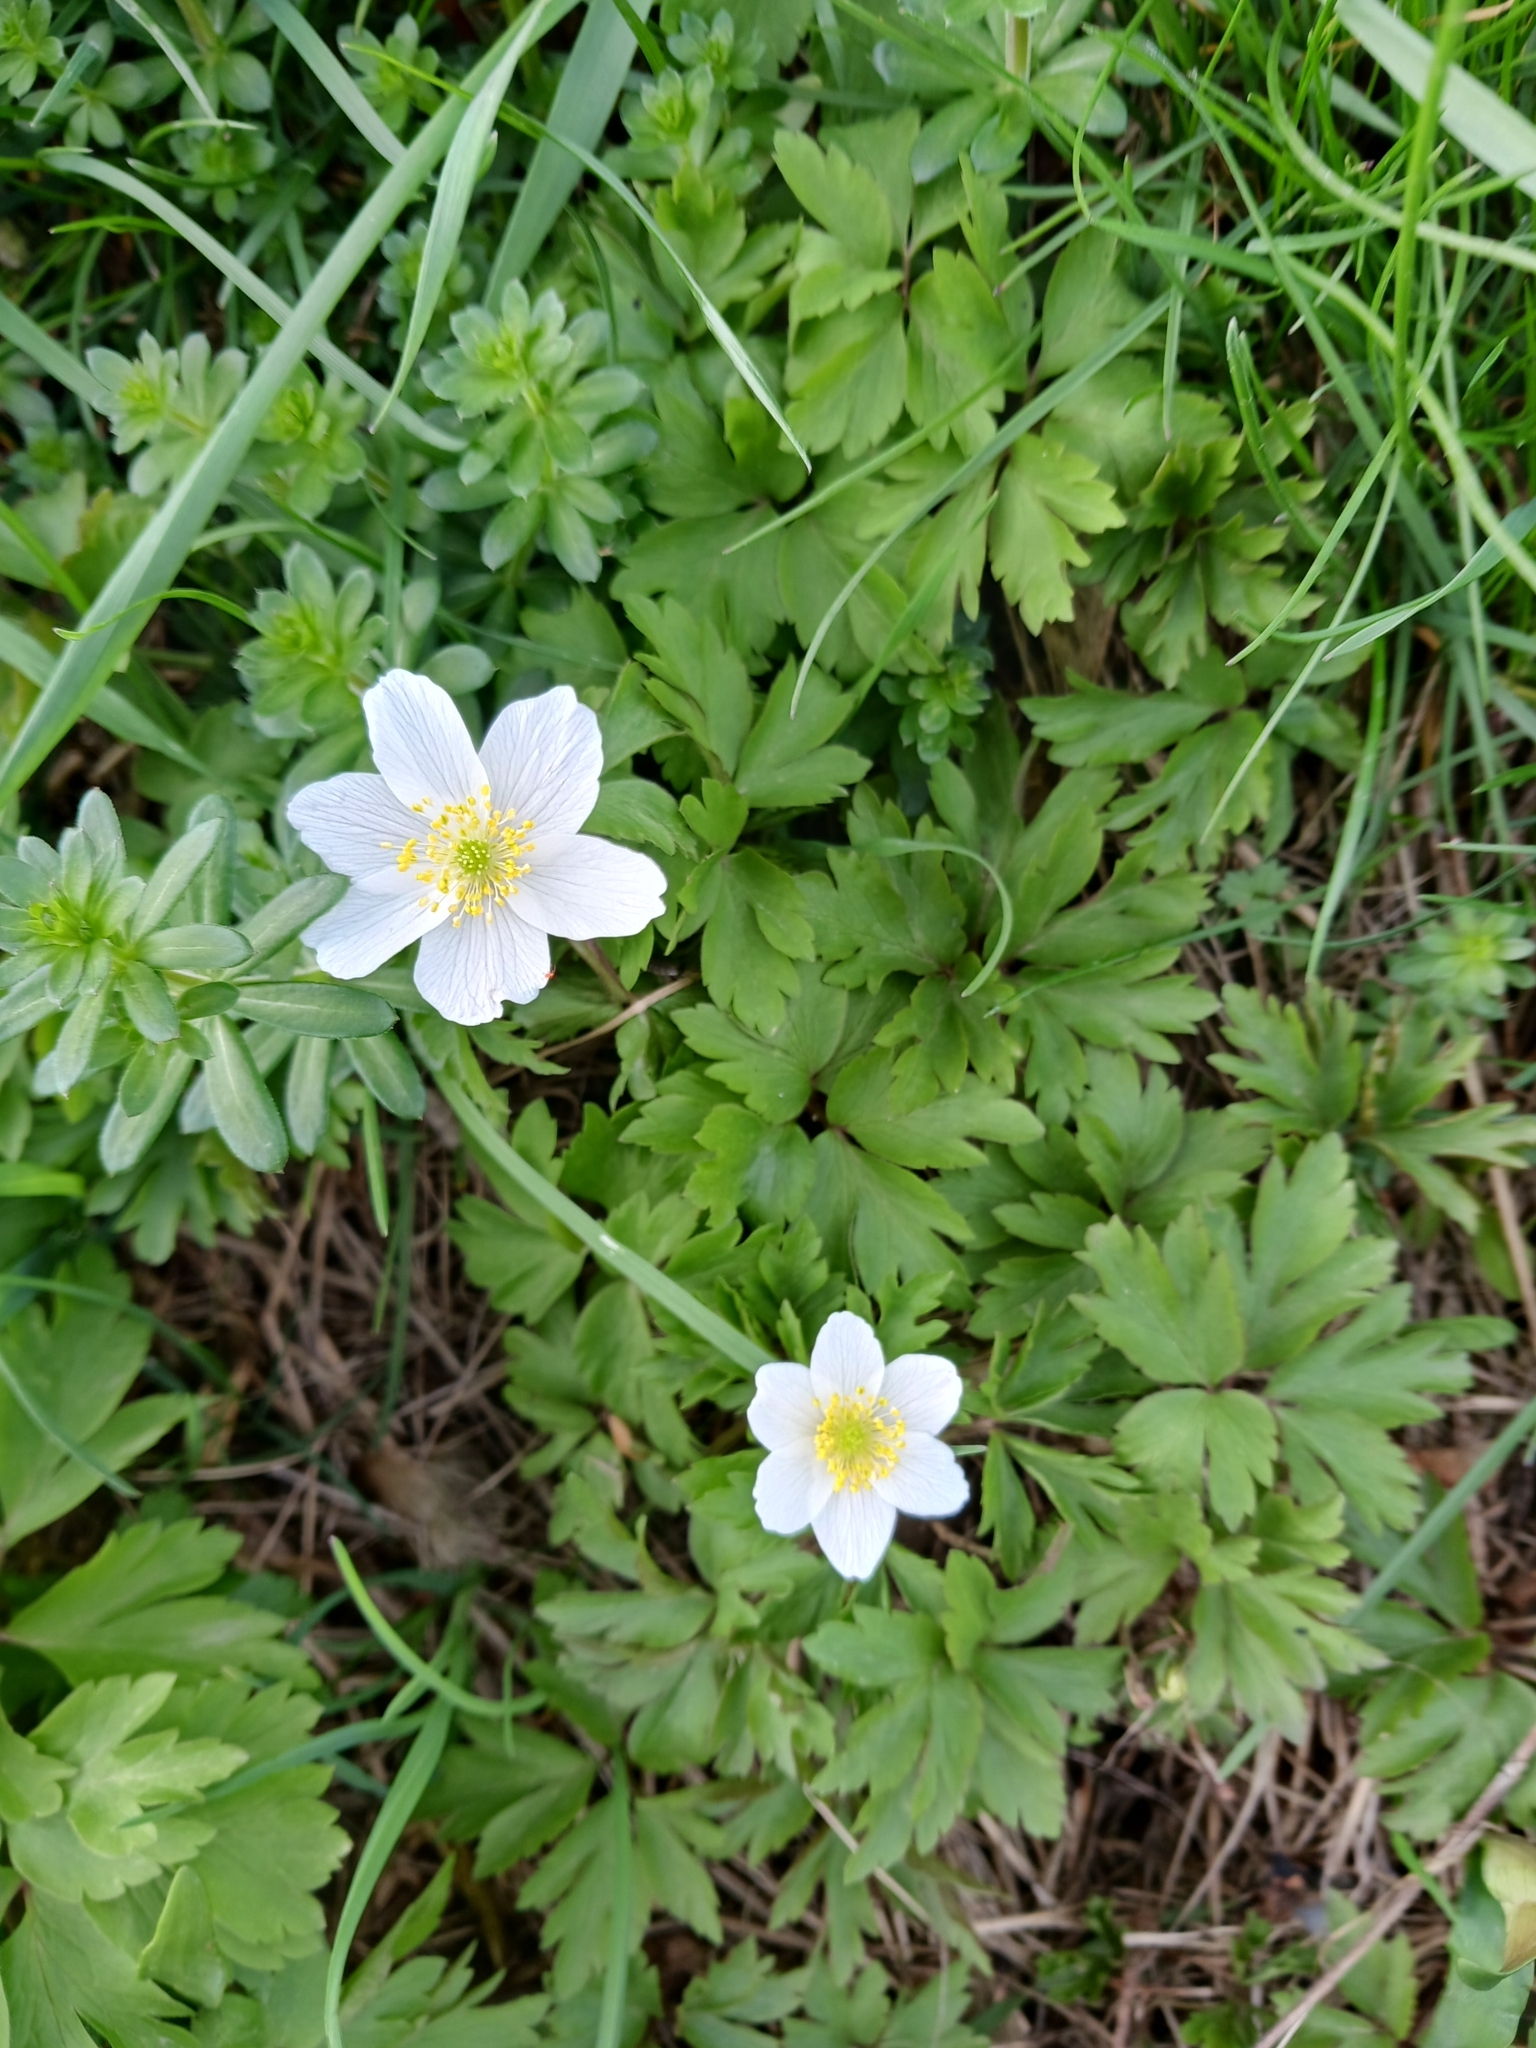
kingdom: Plantae
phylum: Tracheophyta
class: Magnoliopsida
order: Ranunculales
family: Ranunculaceae
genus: Anemone
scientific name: Anemone nemorosa
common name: Wood anemone
